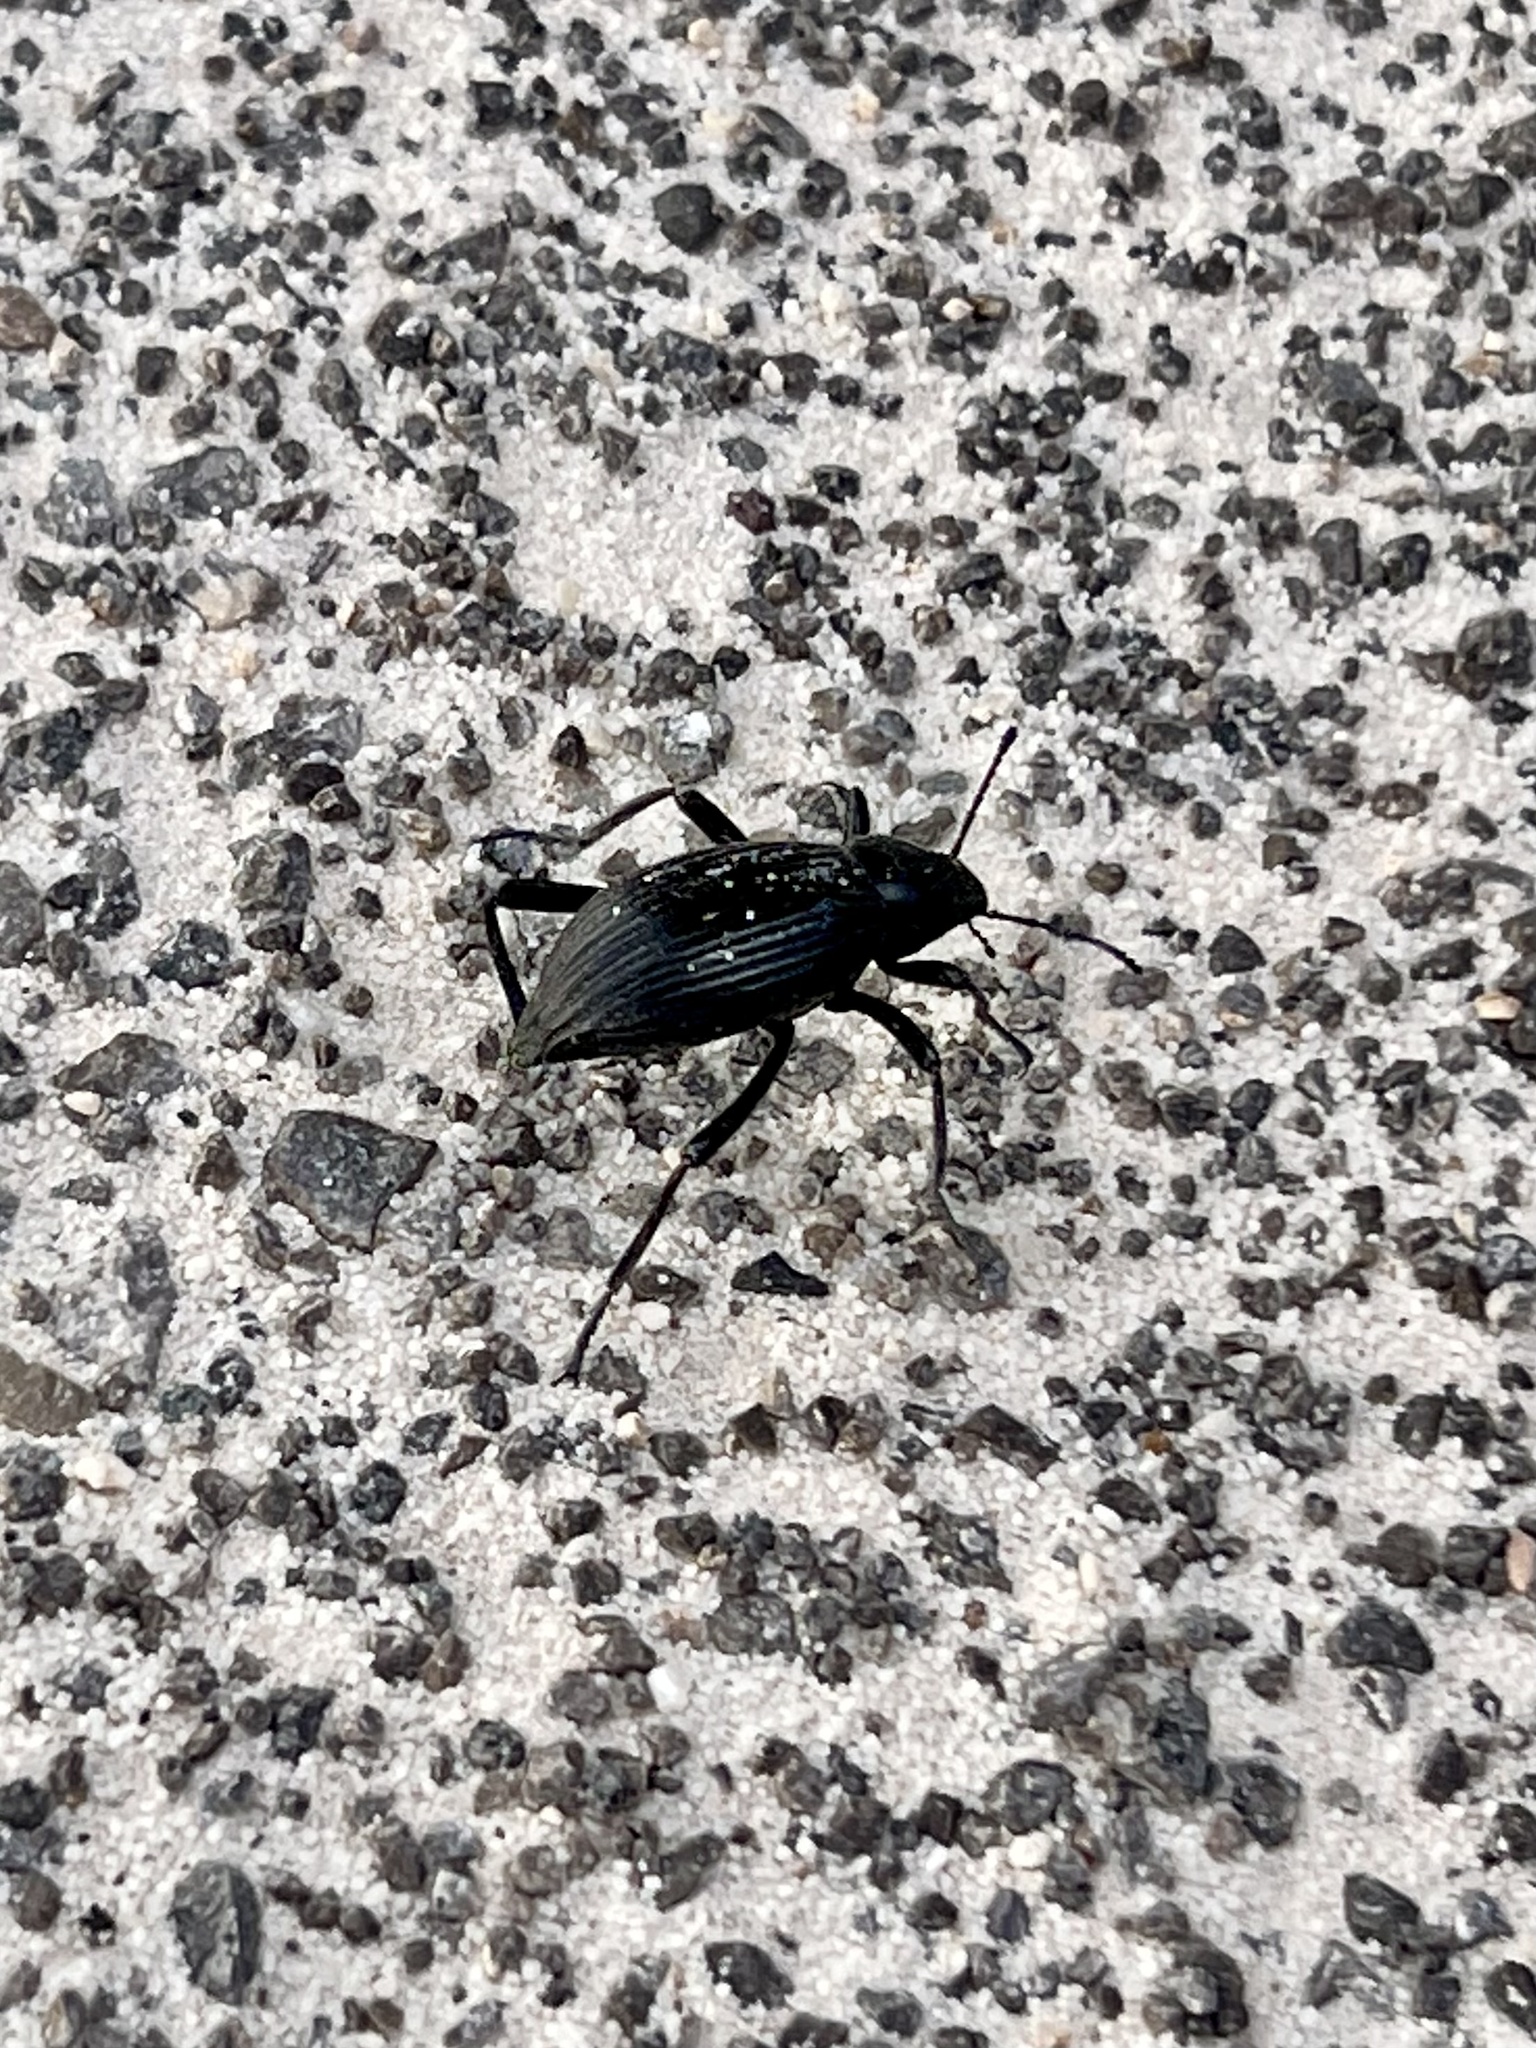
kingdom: Animalia
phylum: Arthropoda
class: Insecta
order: Coleoptera
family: Tenebrionidae
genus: Eleodes
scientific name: Eleodes hispilabris
